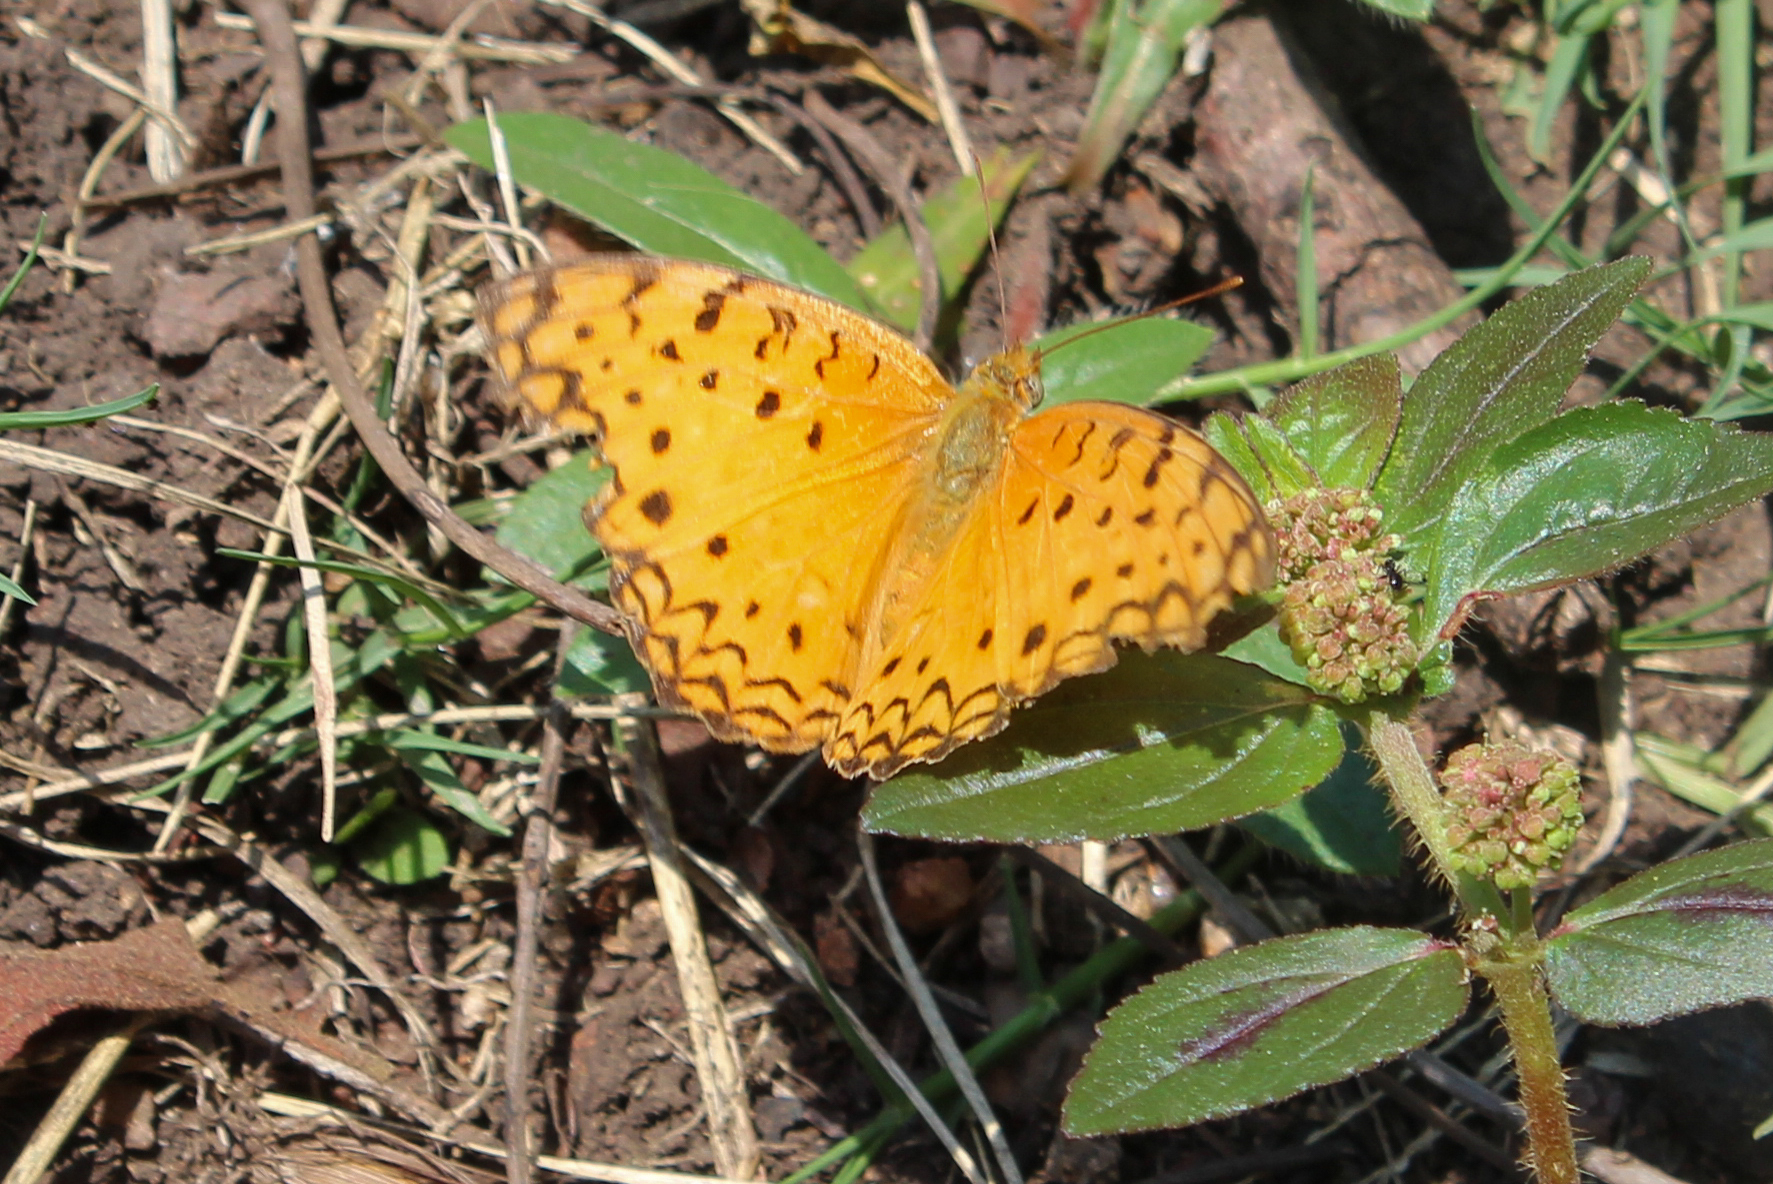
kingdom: Animalia
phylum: Arthropoda
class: Insecta
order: Lepidoptera
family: Nymphalidae
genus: Phalanta
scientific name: Phalanta phalantha
